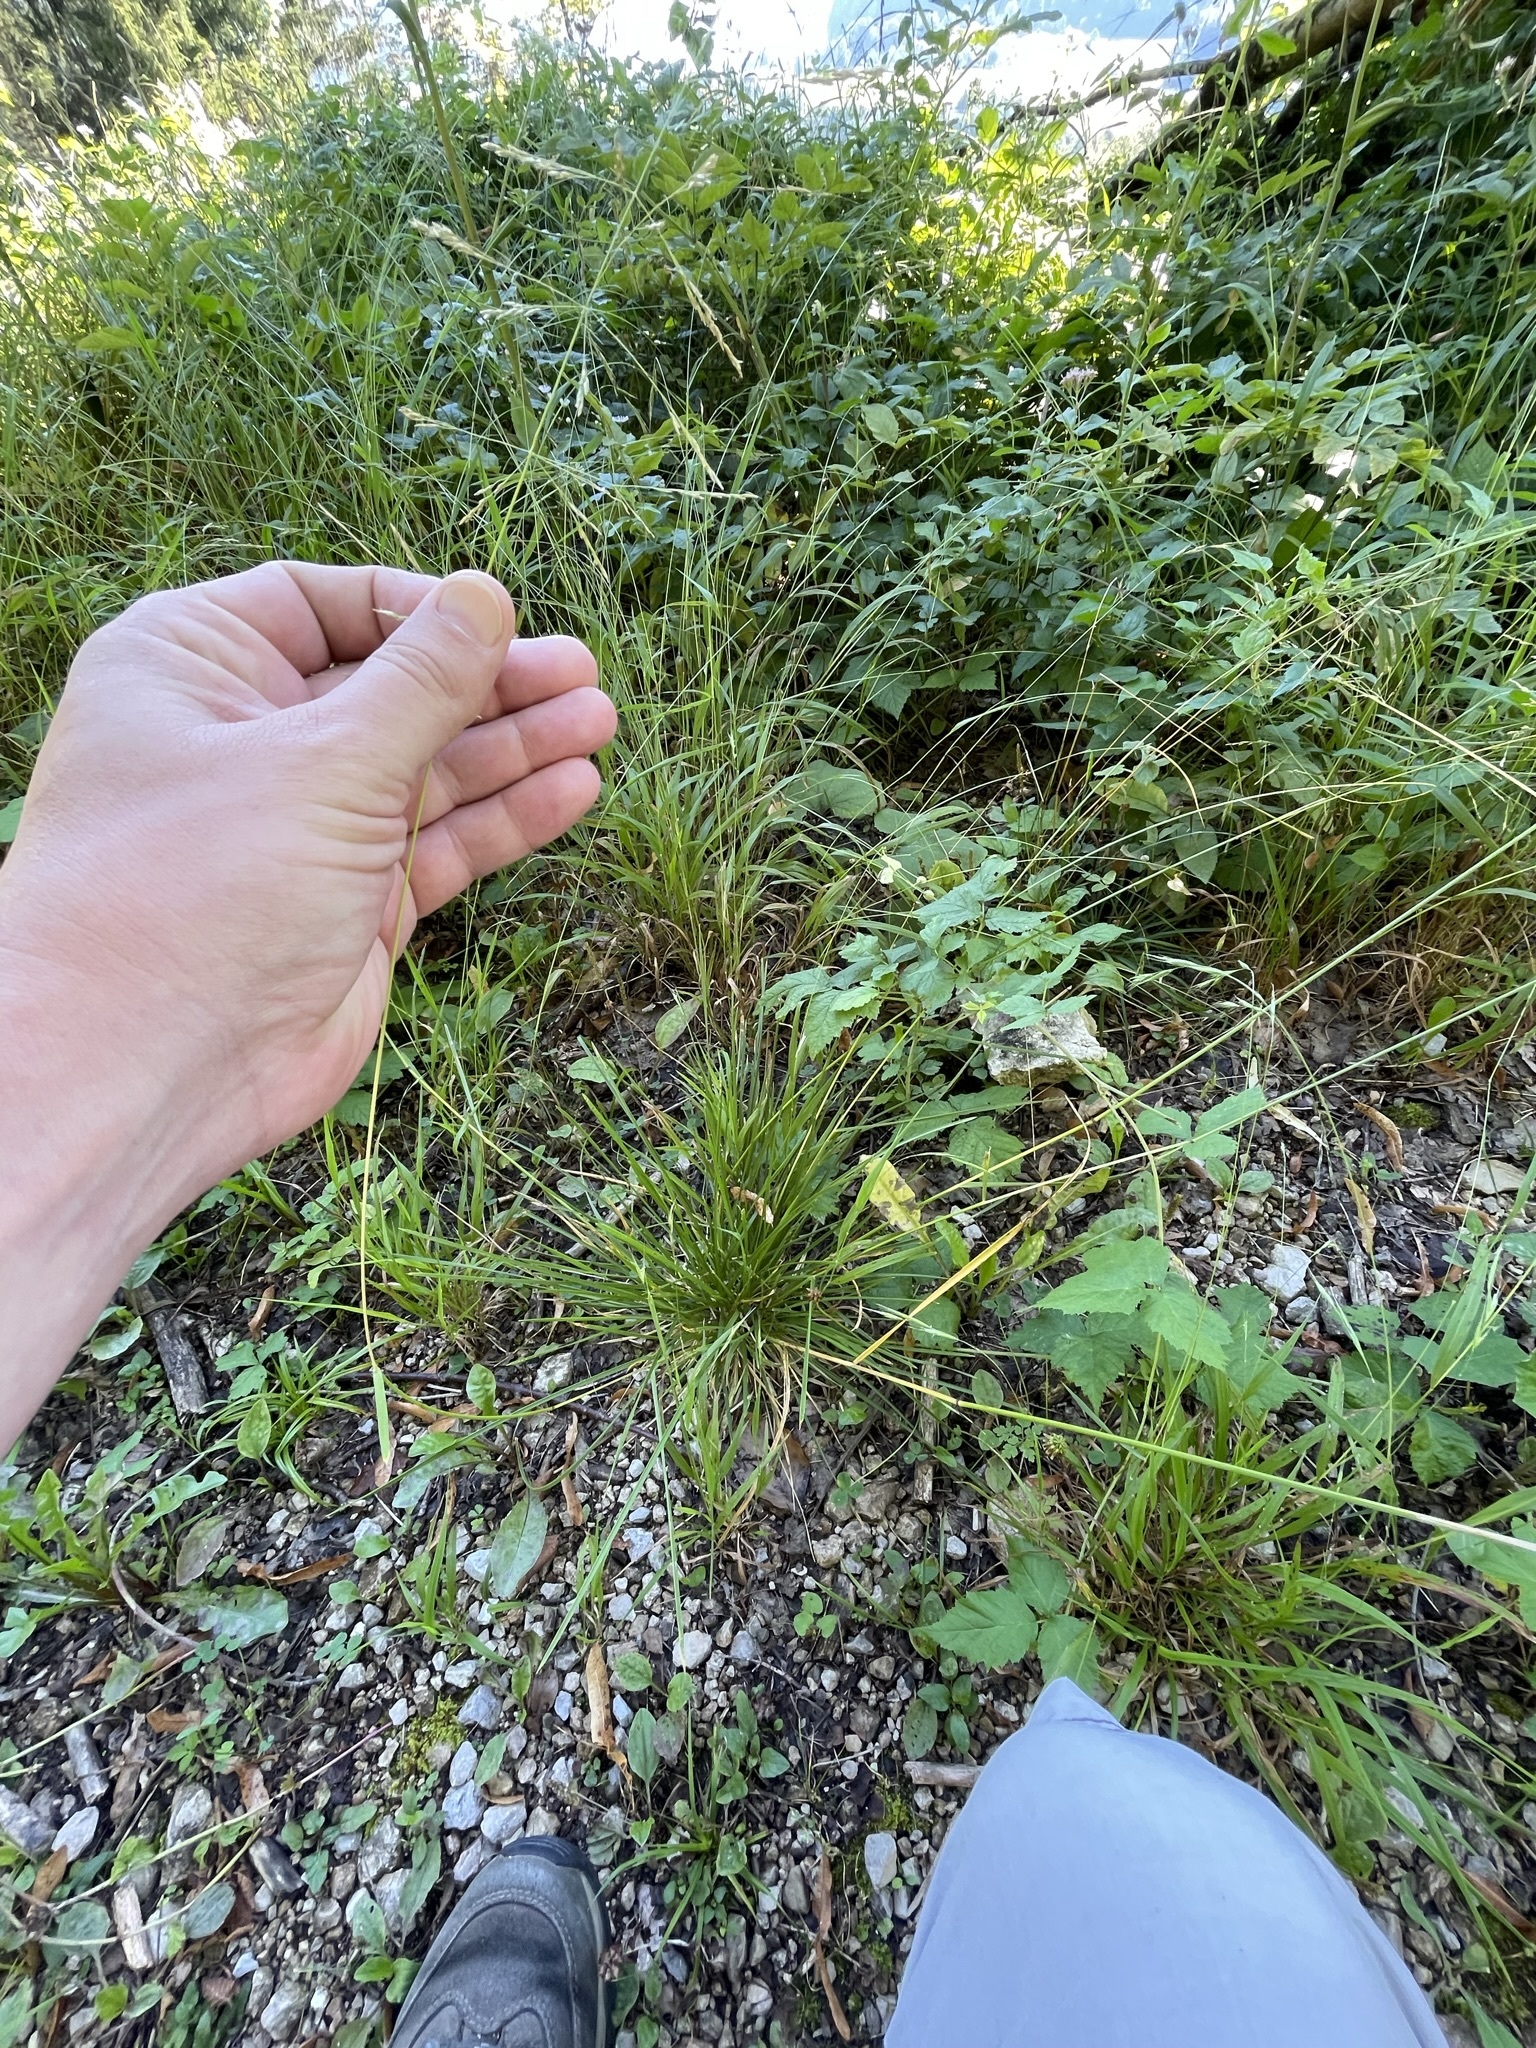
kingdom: Plantae
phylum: Tracheophyta
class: Liliopsida
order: Poales
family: Poaceae
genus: Deschampsia
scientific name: Deschampsia cespitosa
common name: Tufted hair-grass
